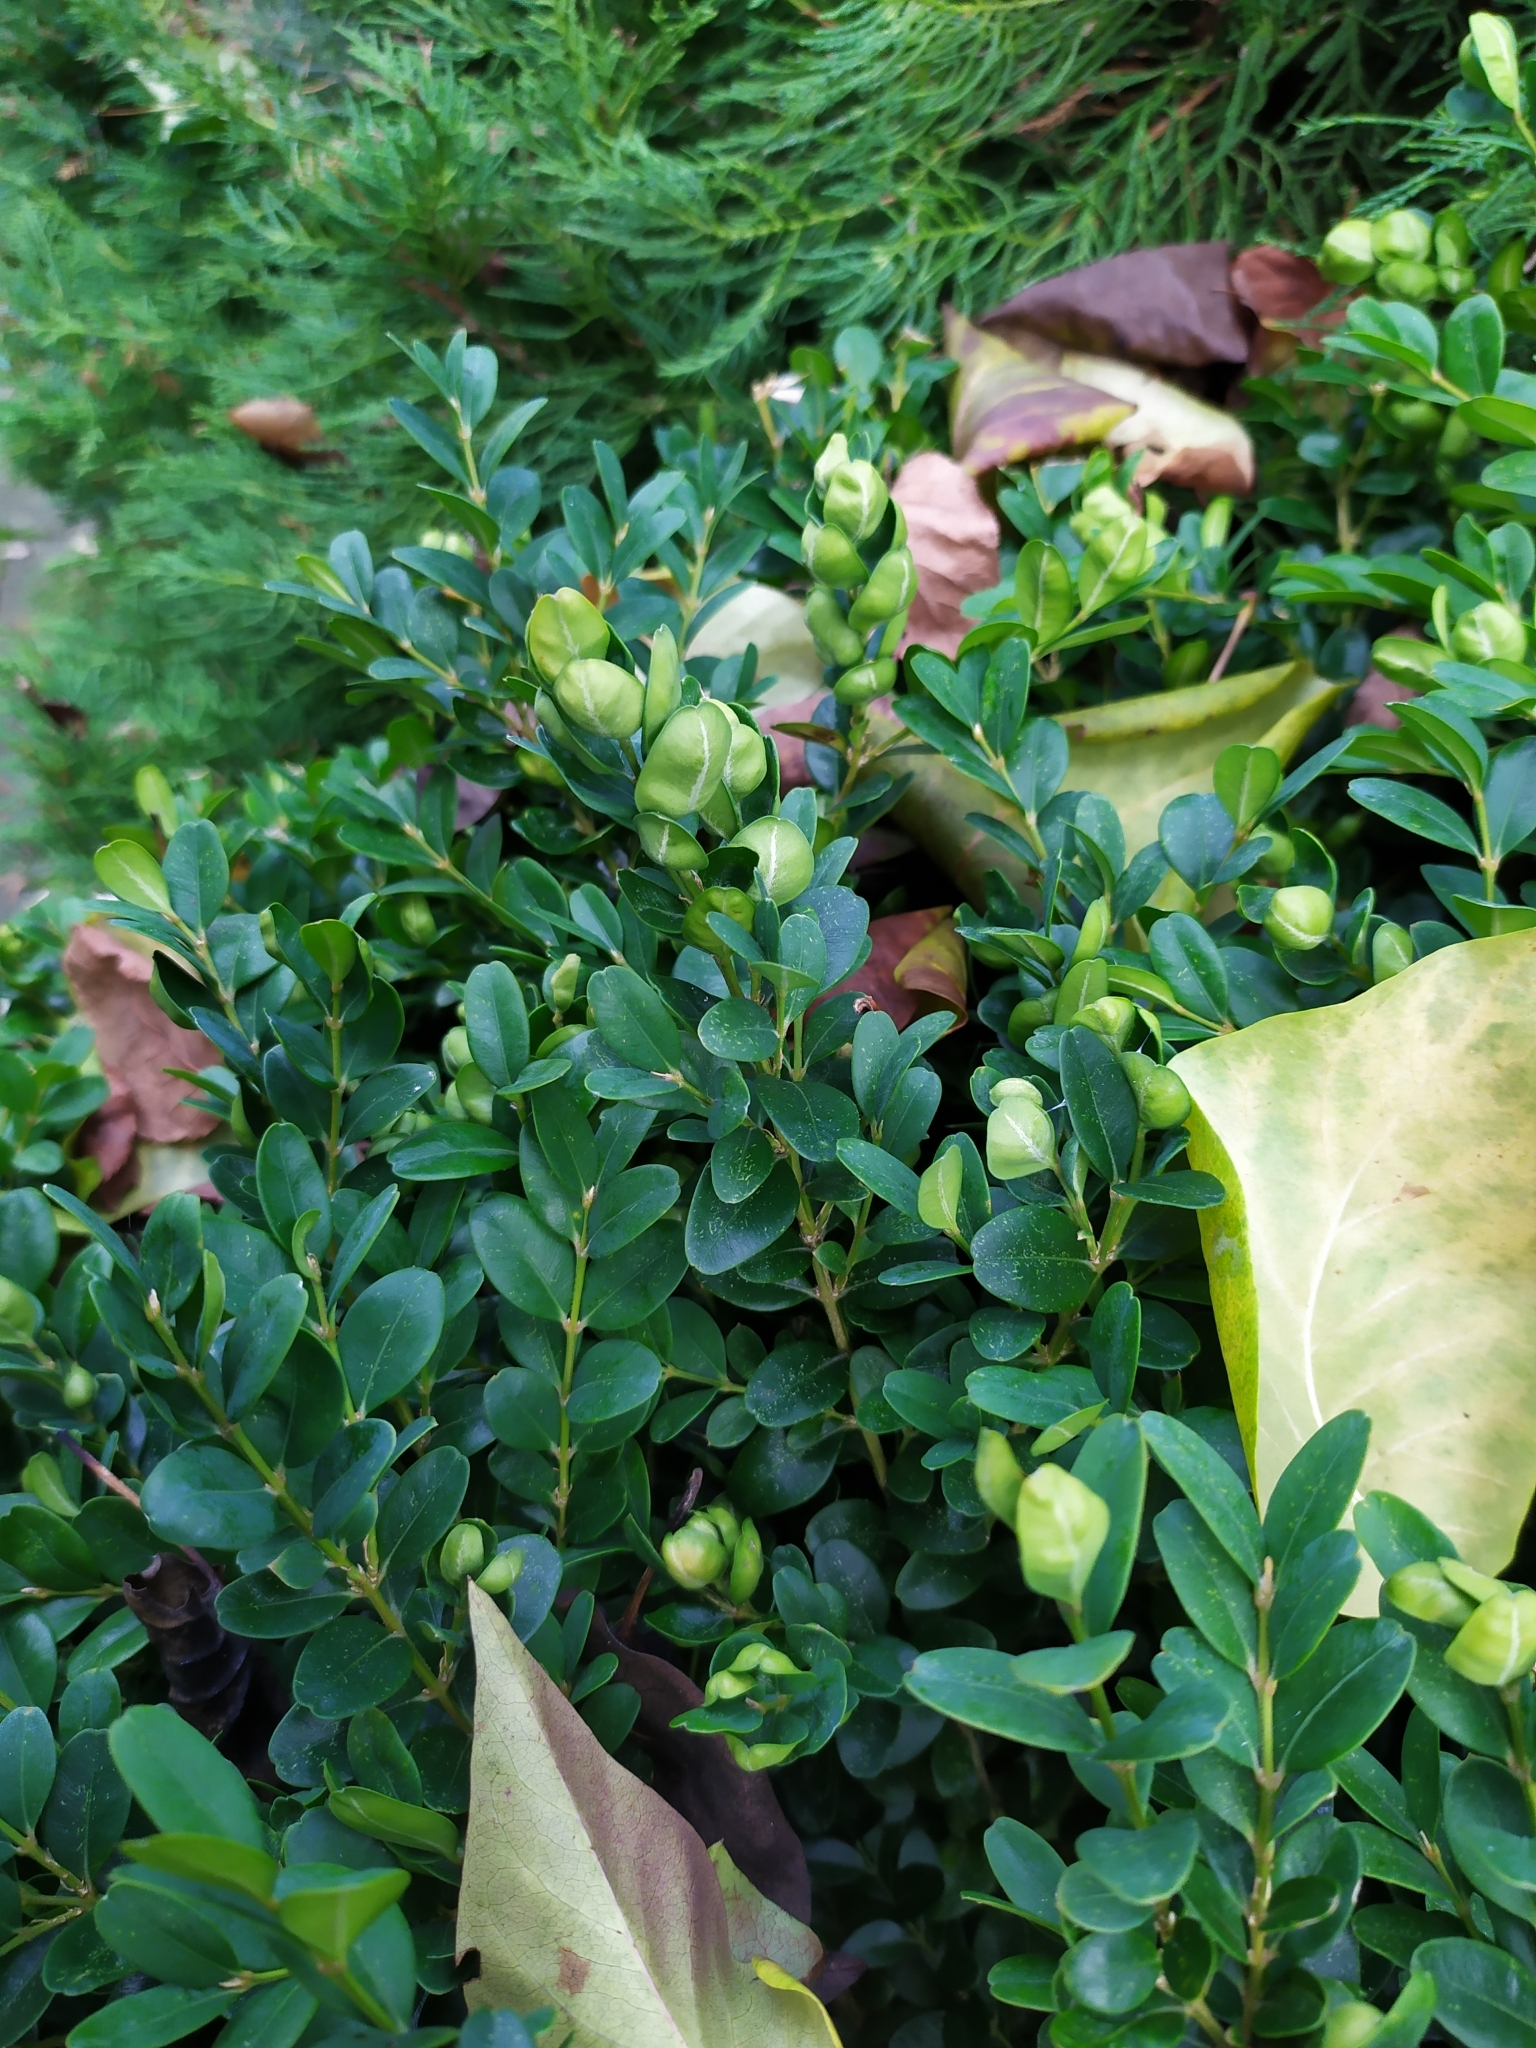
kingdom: Animalia
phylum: Arthropoda
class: Insecta
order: Hemiptera
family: Psyllidae
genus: Psylla
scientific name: Psylla buxi
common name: Boxwood psyllid
